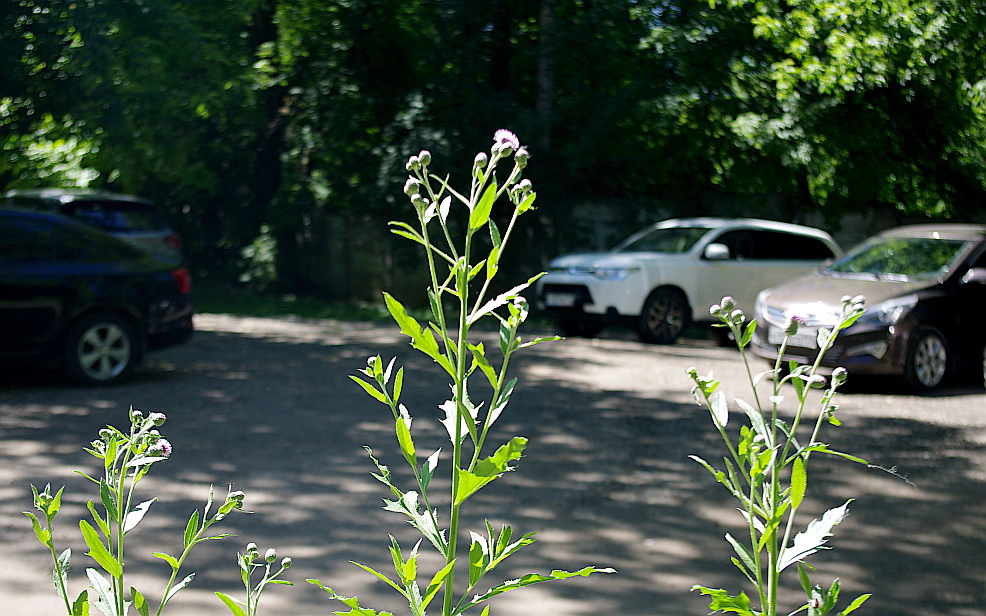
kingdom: Plantae
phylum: Tracheophyta
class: Magnoliopsida
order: Asterales
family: Asteraceae
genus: Cirsium
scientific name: Cirsium arvense
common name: Creeping thistle
